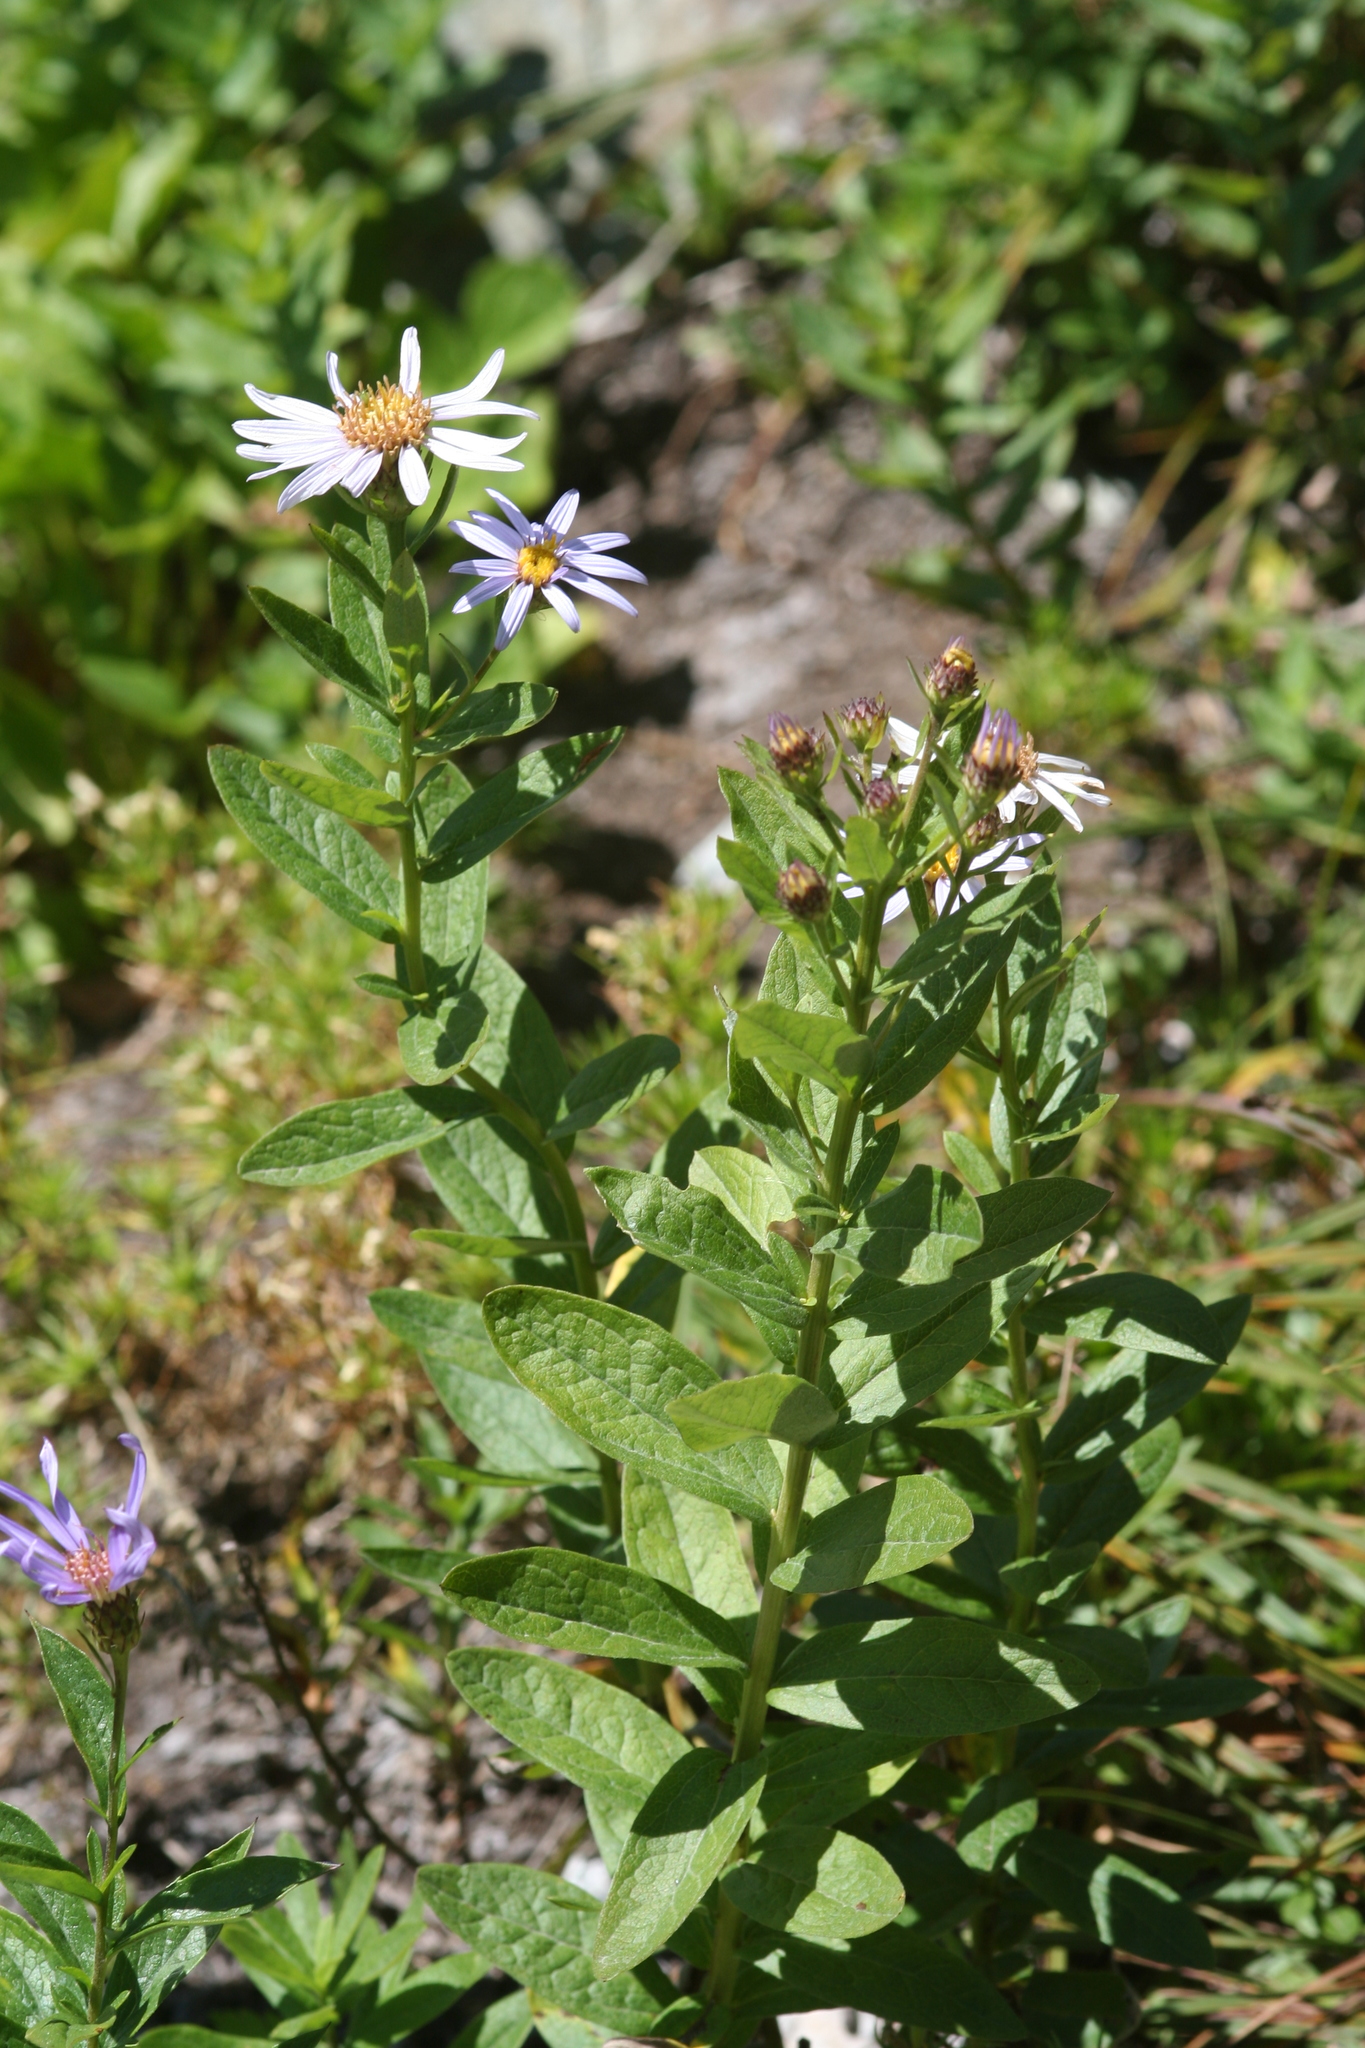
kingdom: Plantae
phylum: Tracheophyta
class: Magnoliopsida
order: Asterales
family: Asteraceae
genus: Eucephalus
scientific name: Eucephalus ledophyllus
